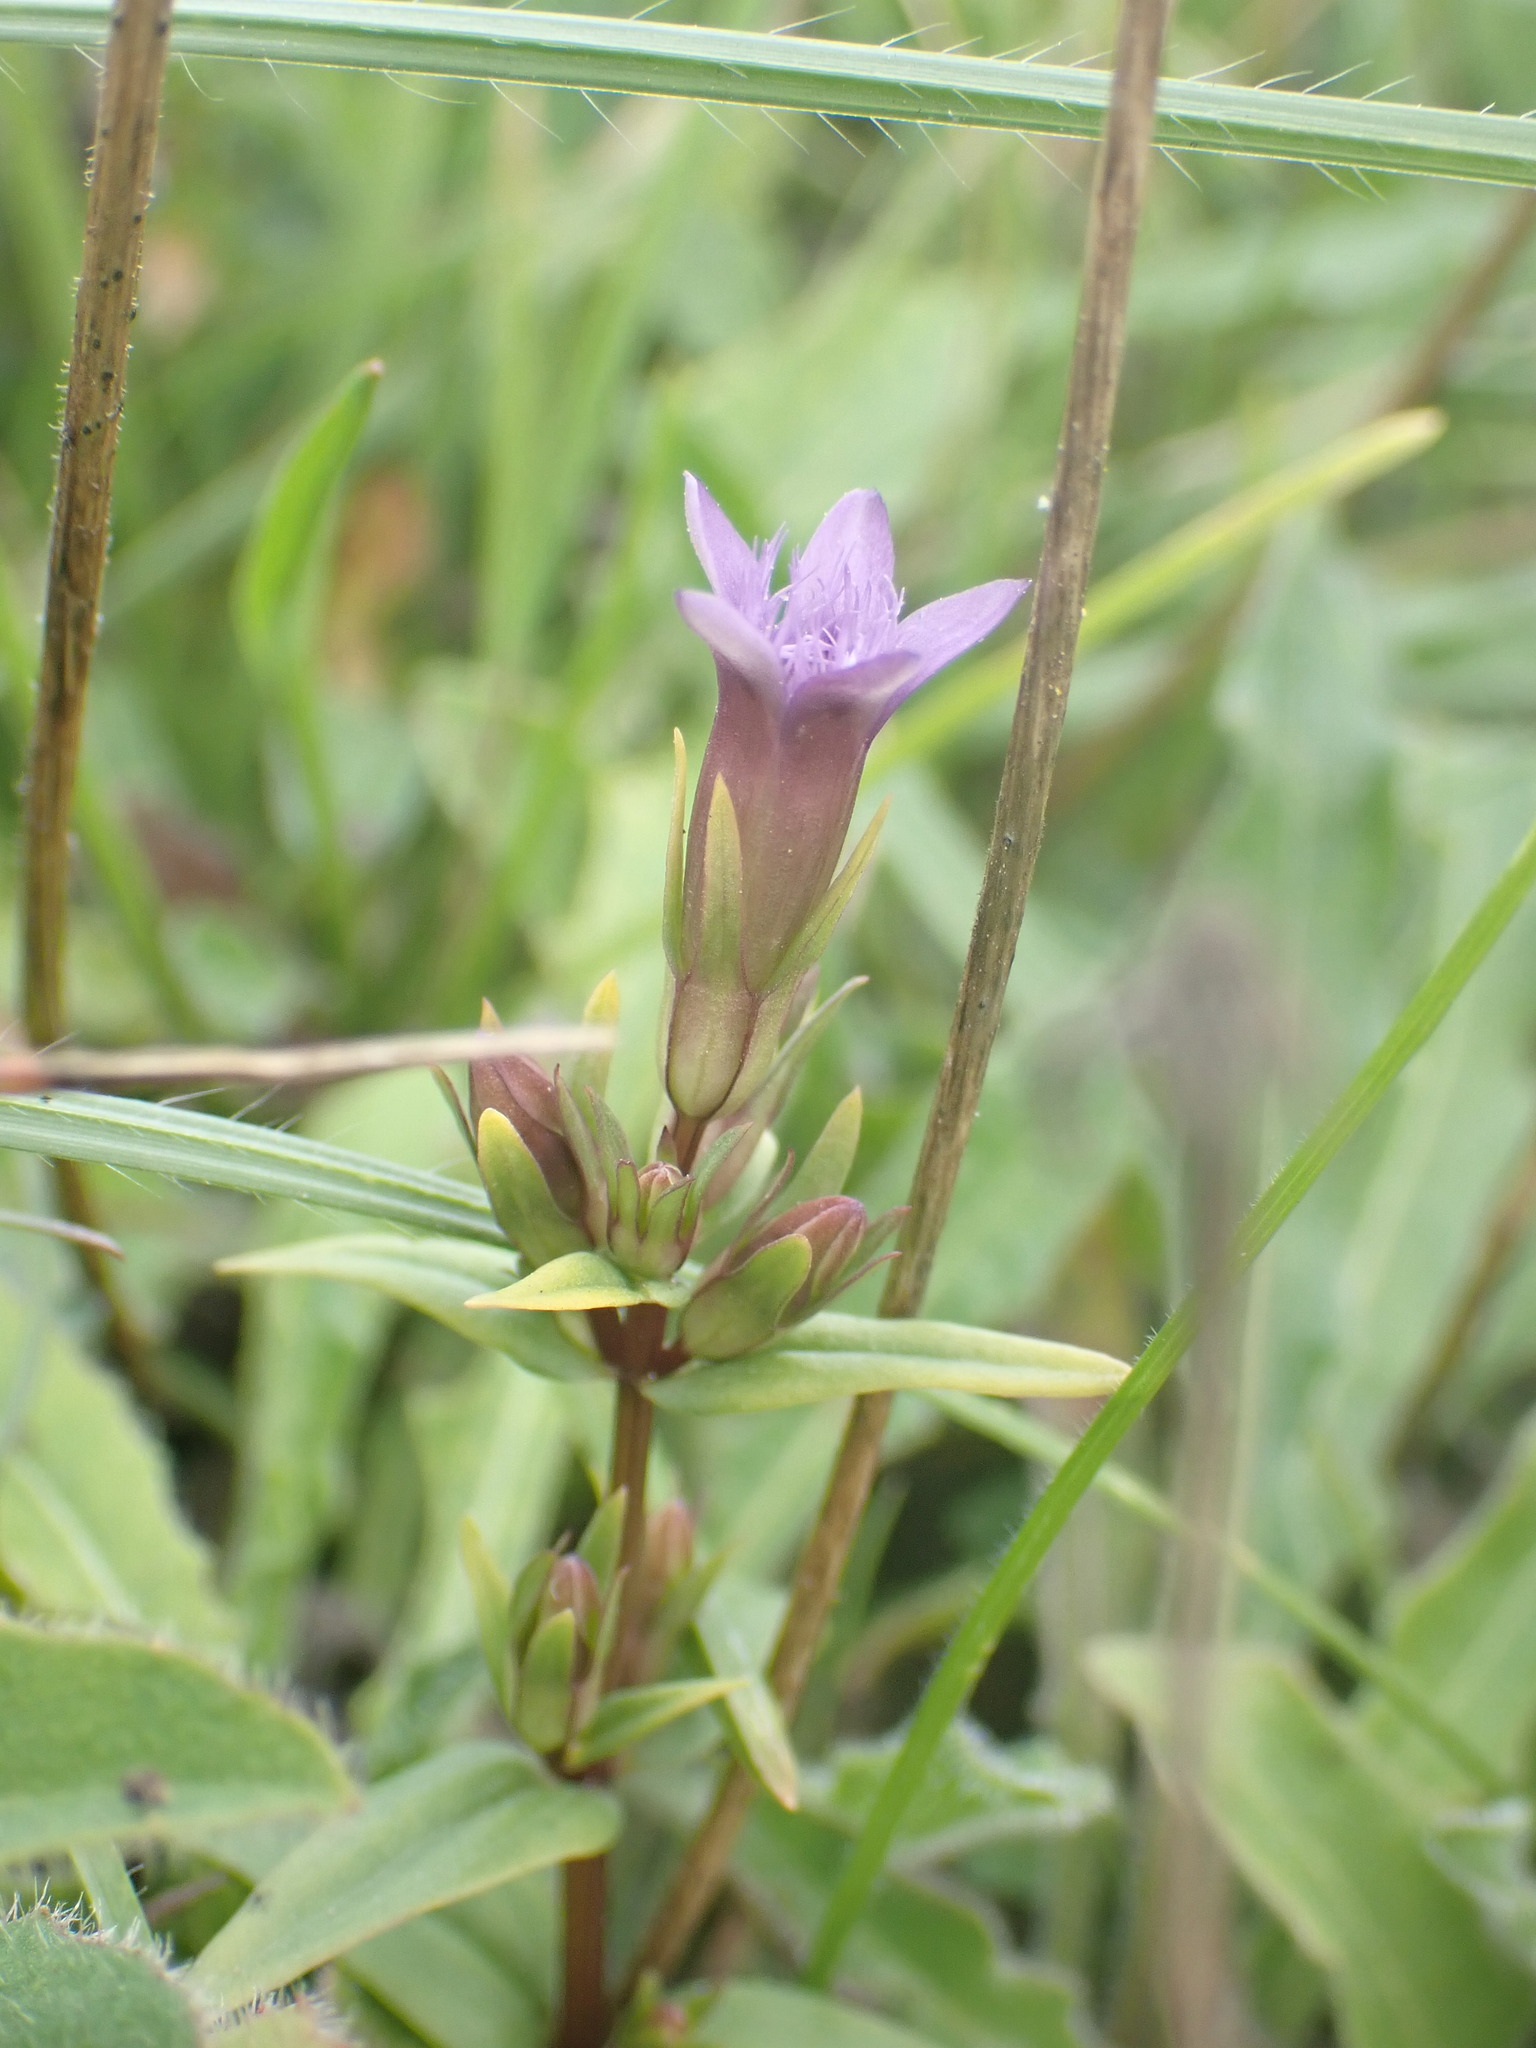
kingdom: Plantae
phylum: Tracheophyta
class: Magnoliopsida
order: Gentianales
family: Gentianaceae
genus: Gentianella
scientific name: Gentianella amarella
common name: Autumn gentian
